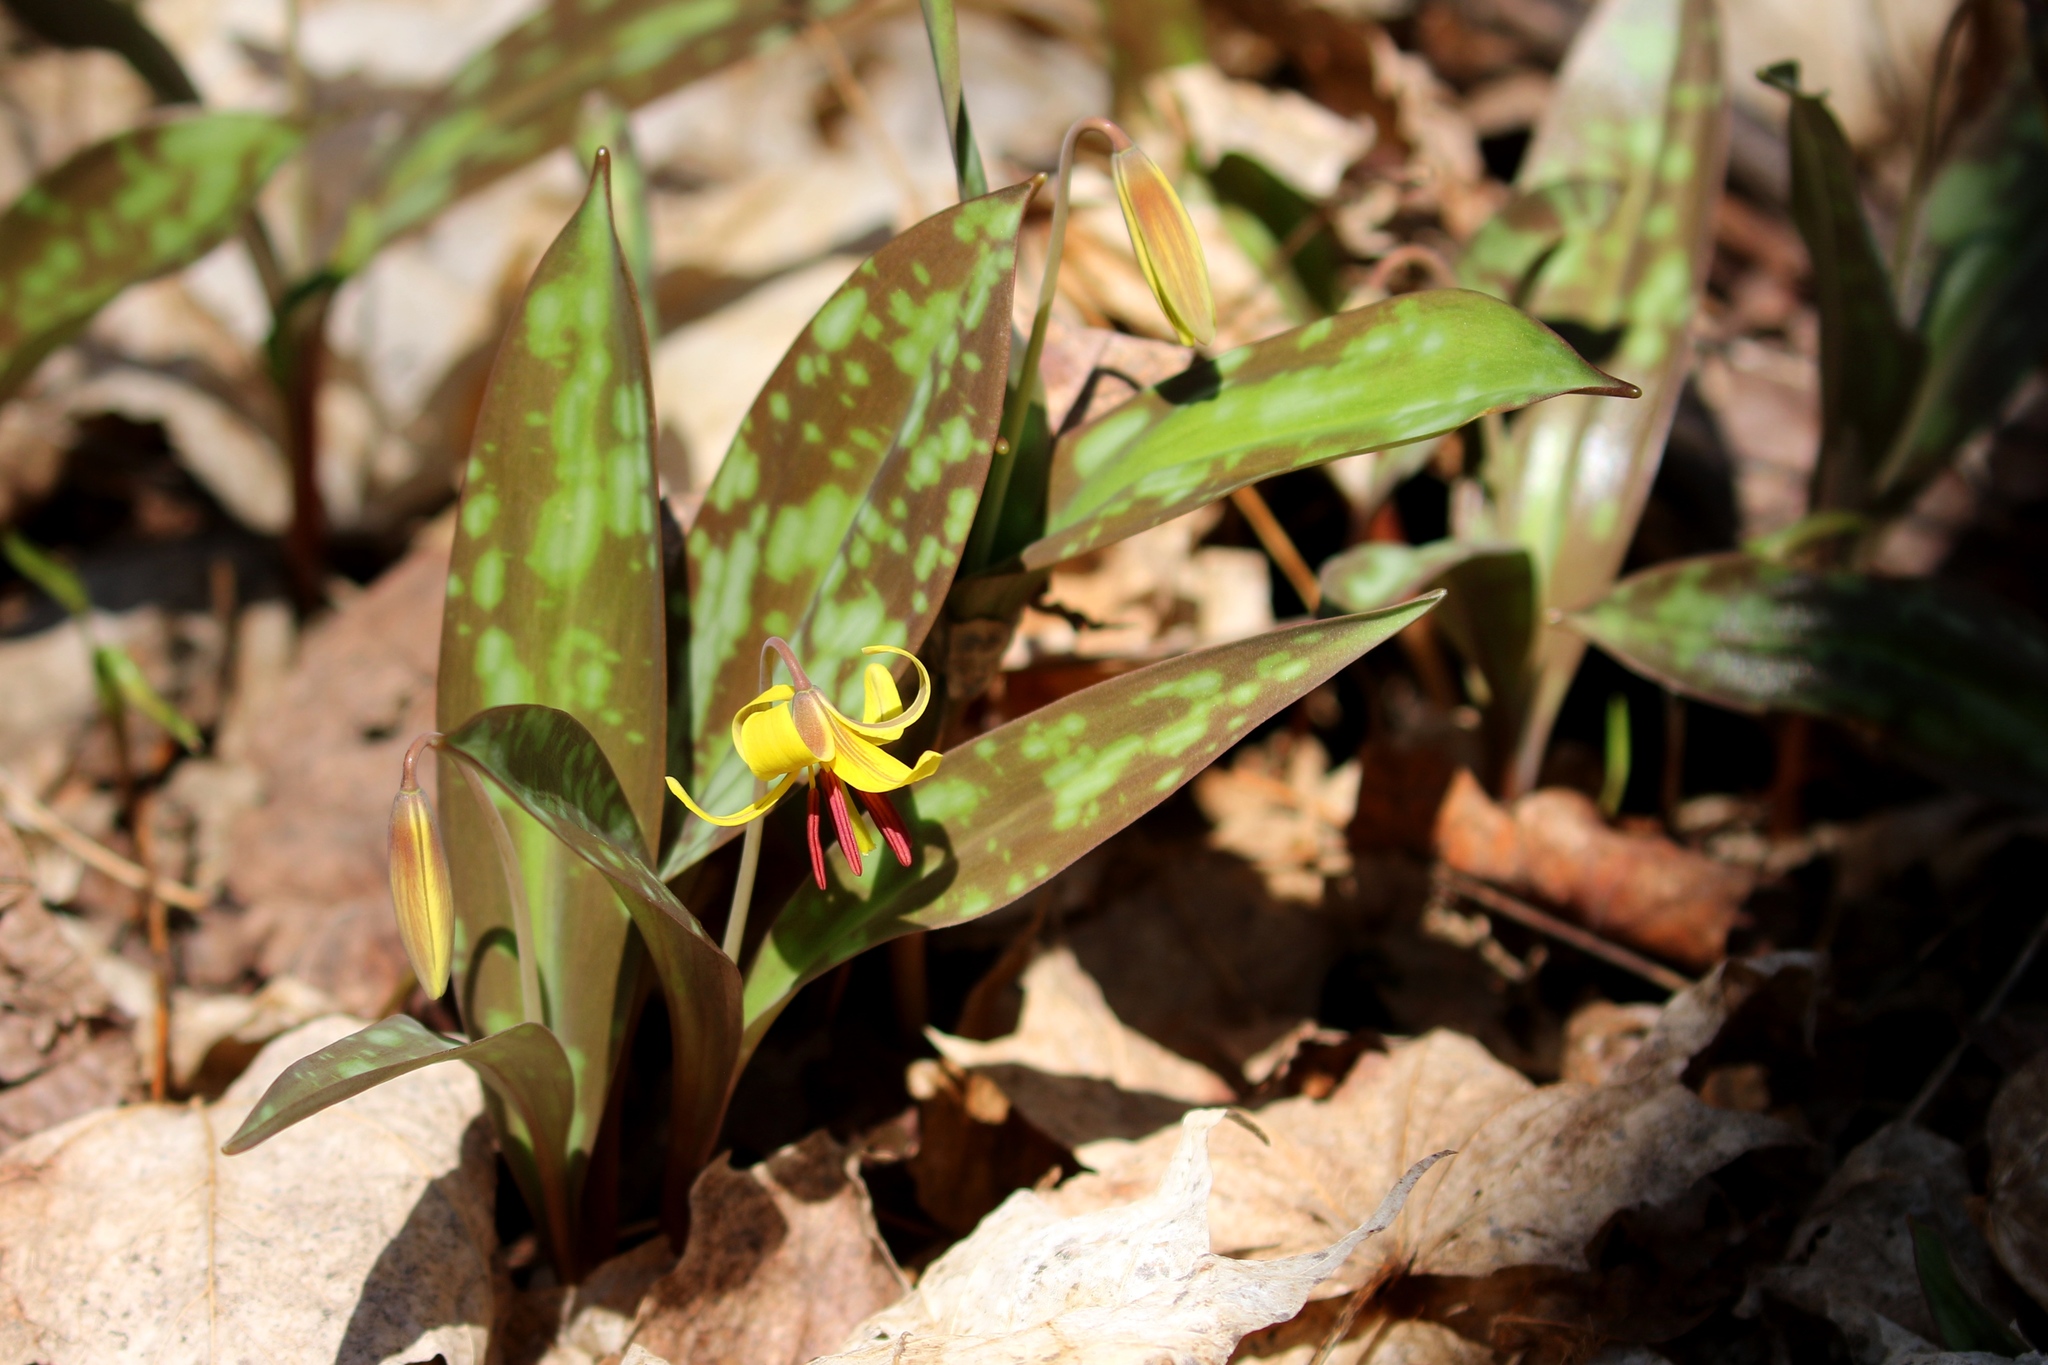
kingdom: Plantae
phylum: Tracheophyta
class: Liliopsida
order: Liliales
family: Liliaceae
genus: Erythronium
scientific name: Erythronium americanum
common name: Yellow adder's-tongue
